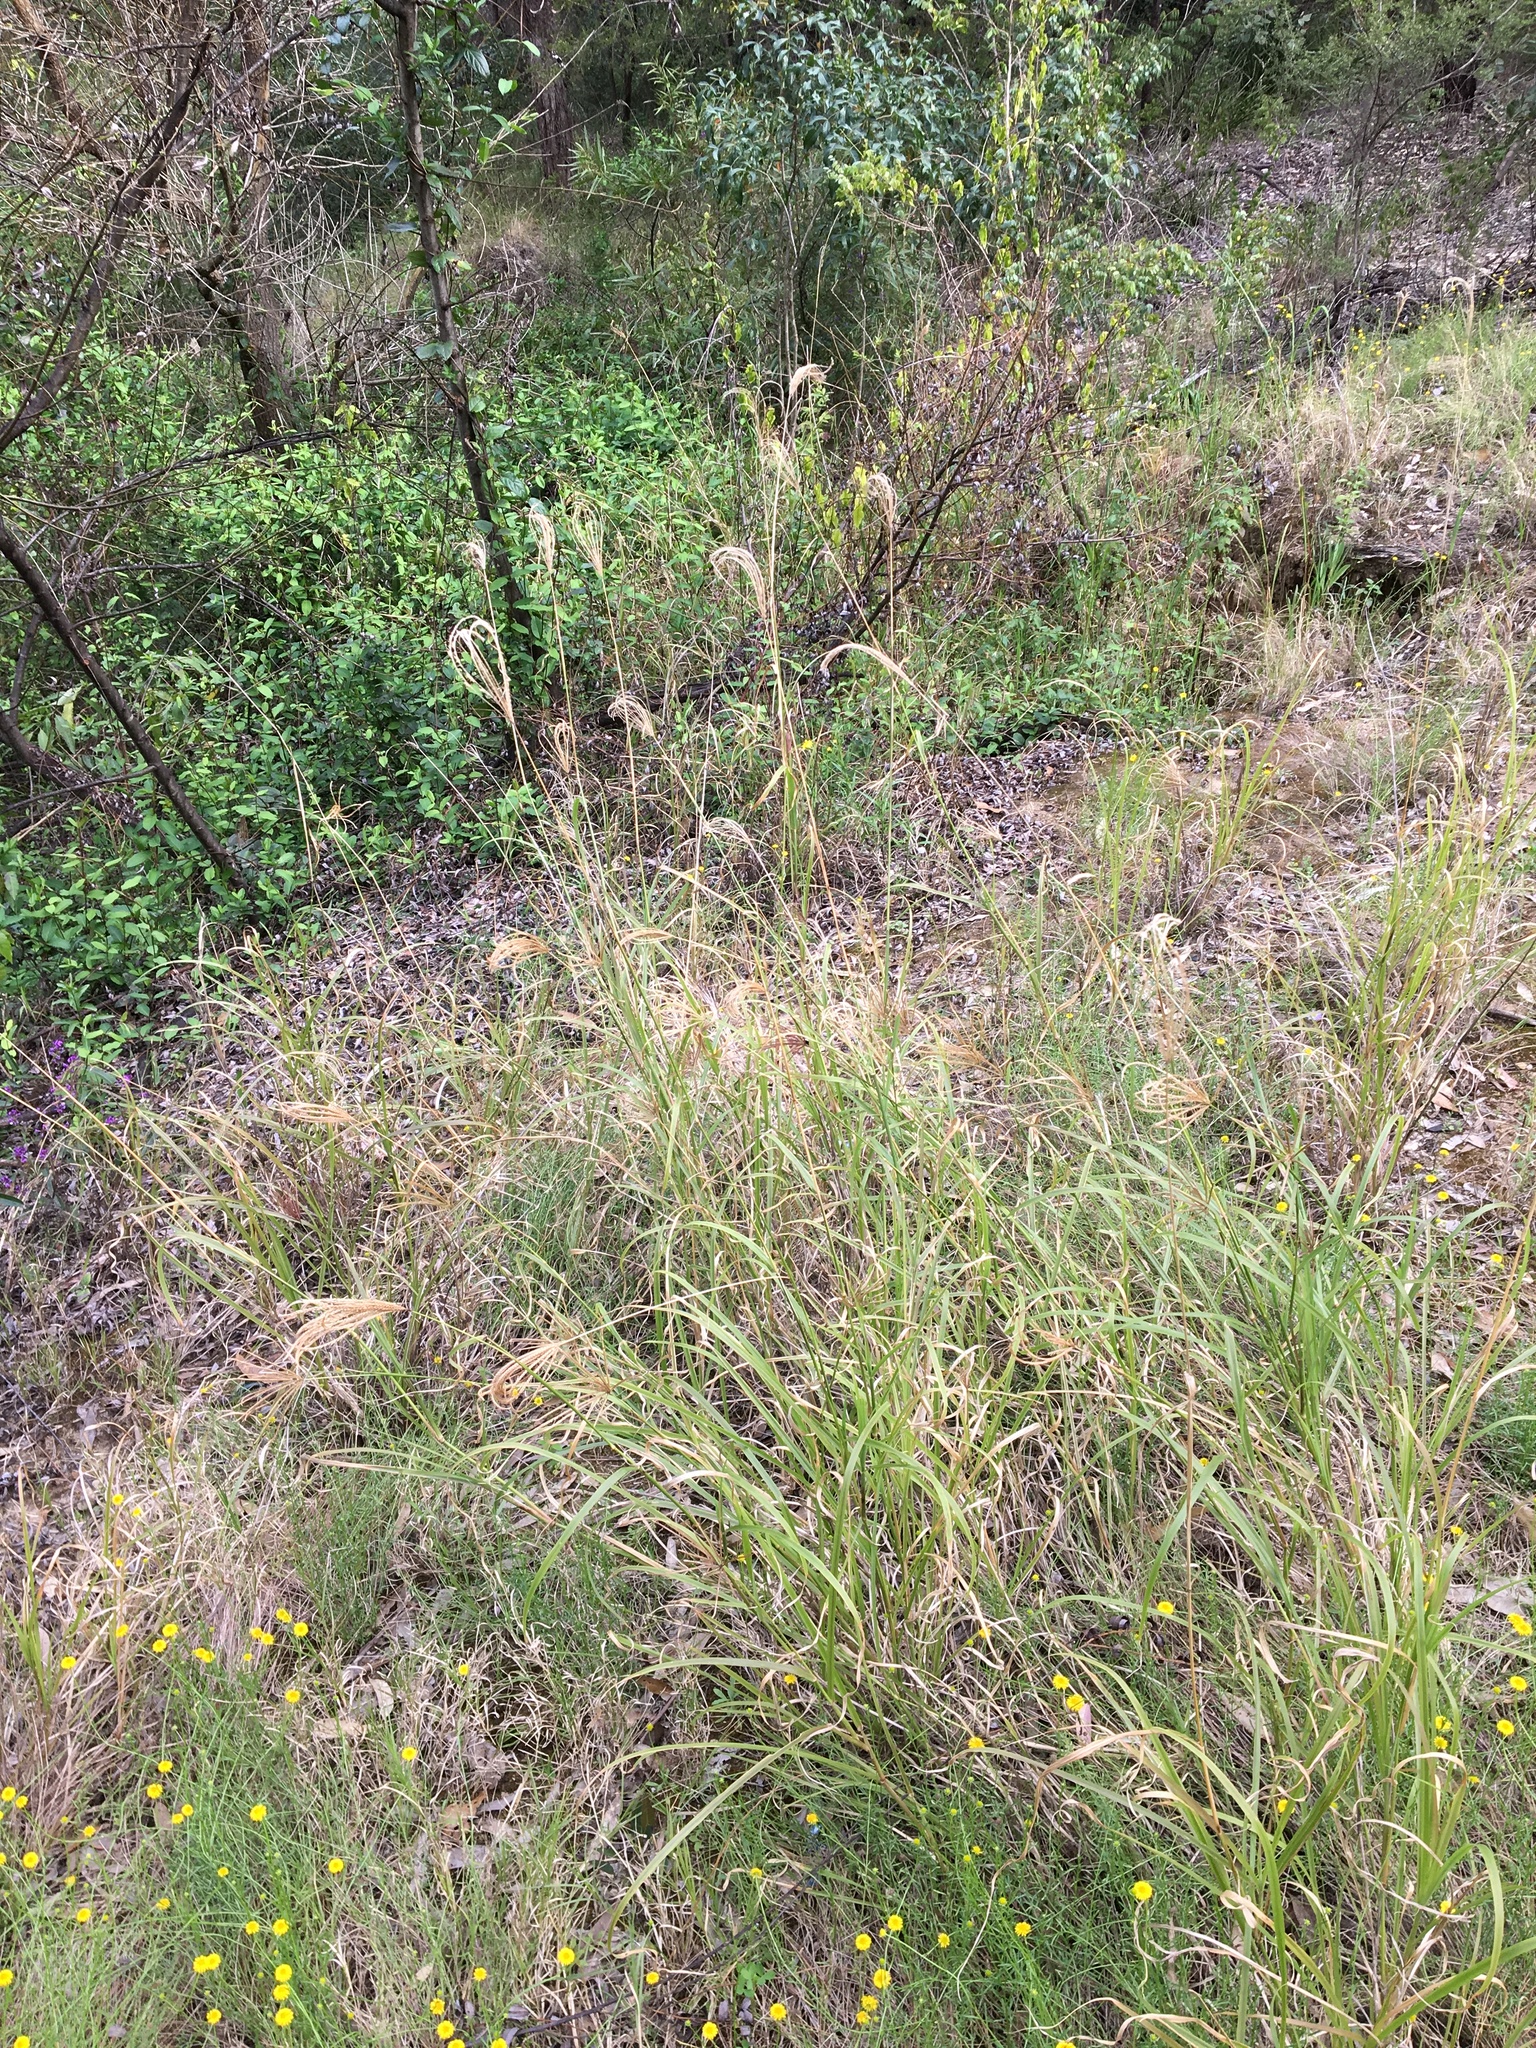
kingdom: Plantae
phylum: Tracheophyta
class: Liliopsida
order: Poales
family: Poaceae
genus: Chloris
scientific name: Chloris gayana
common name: Rhodes grass
